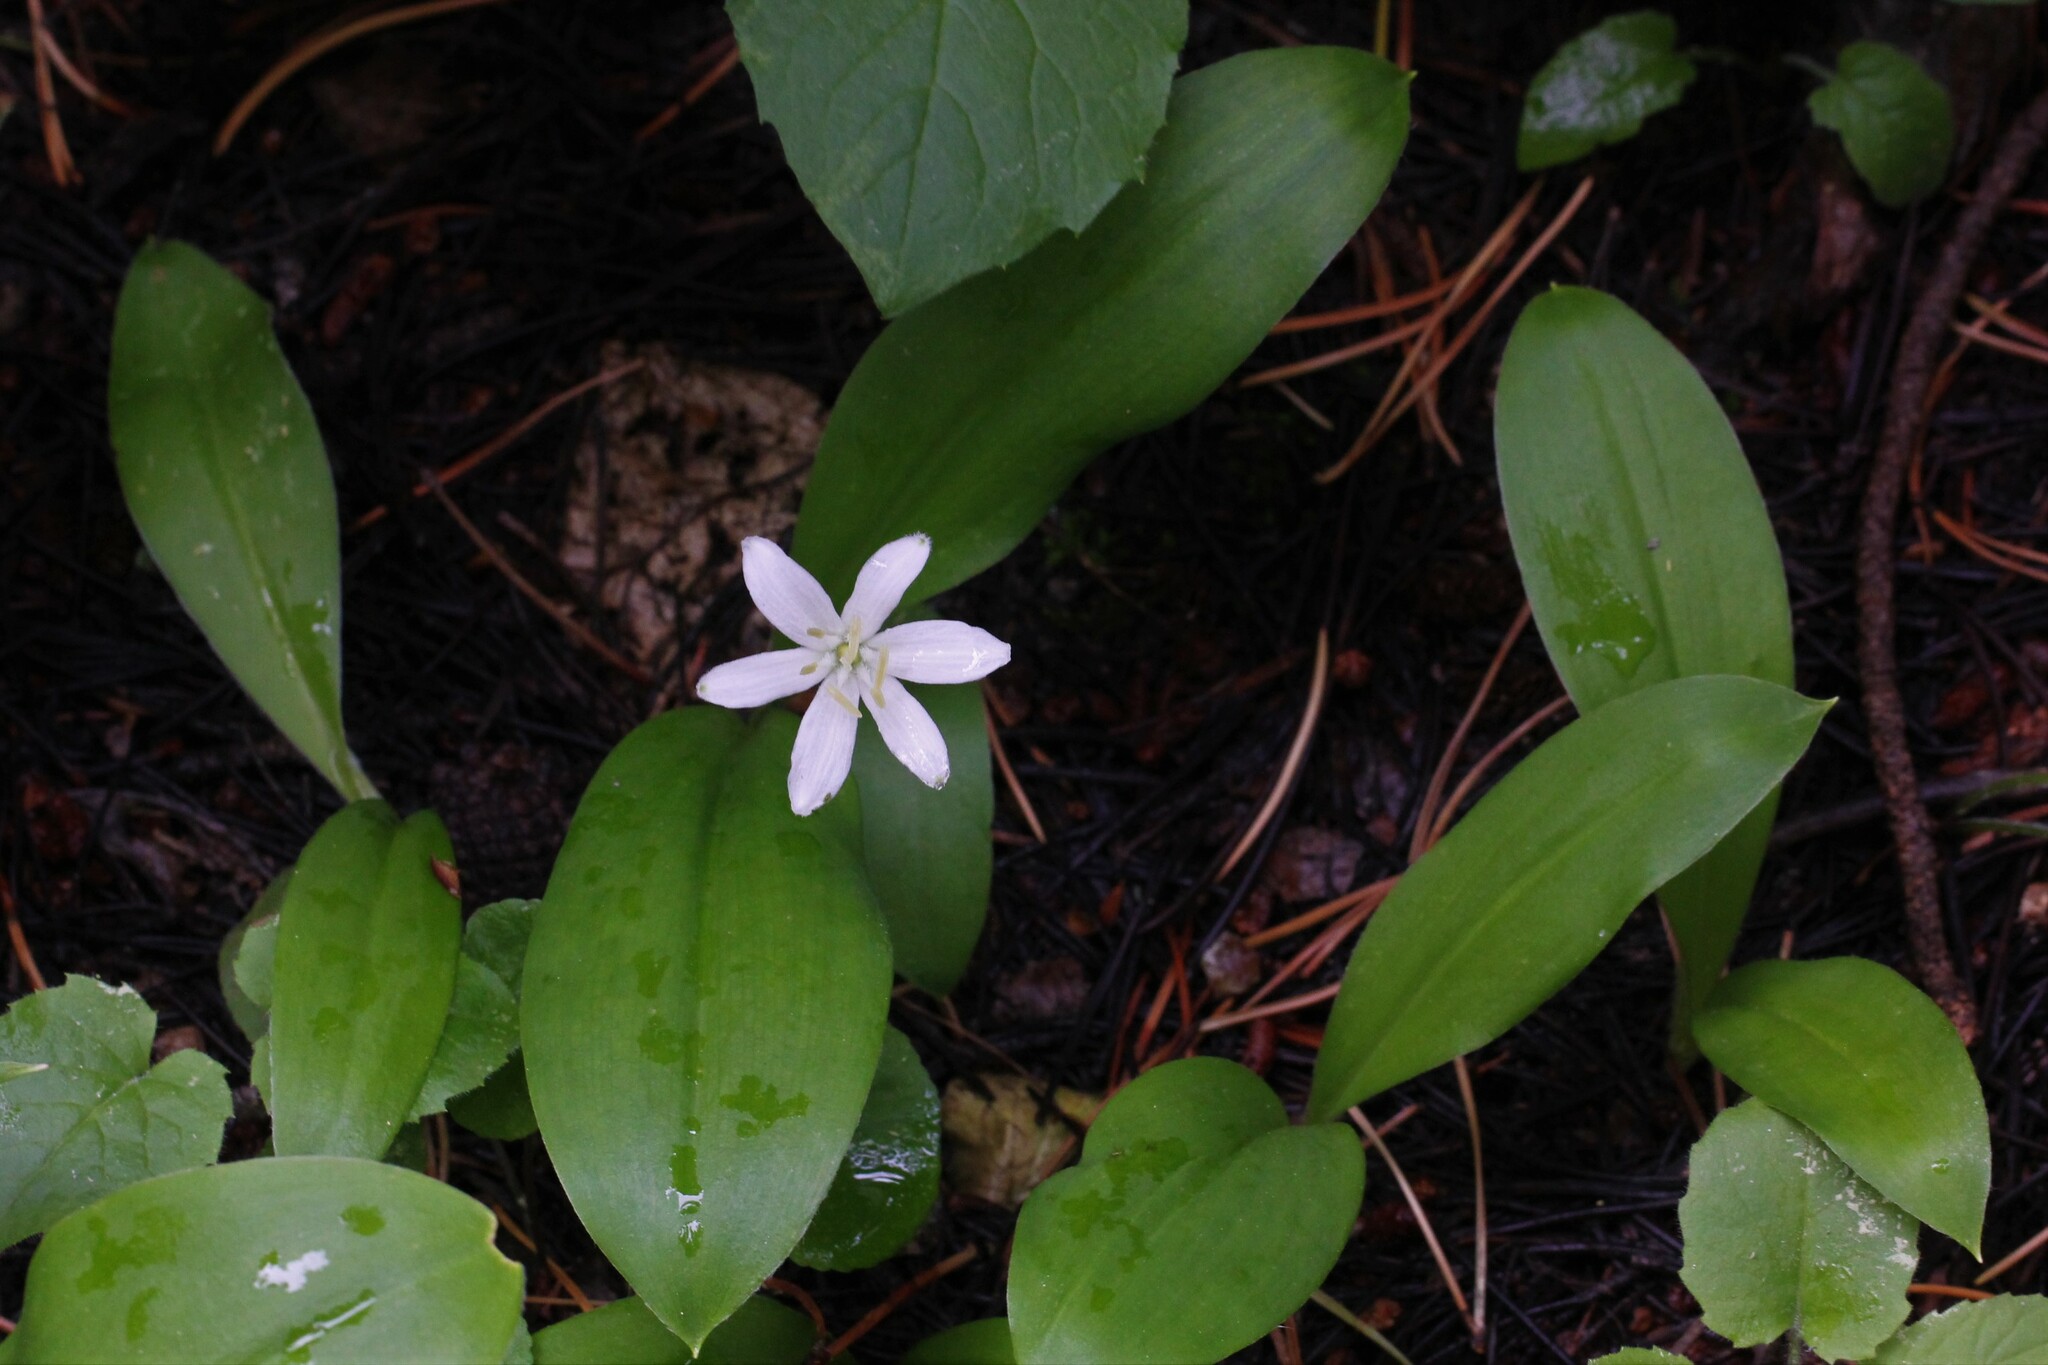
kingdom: Plantae
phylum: Tracheophyta
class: Liliopsida
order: Liliales
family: Liliaceae
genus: Clintonia
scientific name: Clintonia uniflora
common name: Queen's cup
